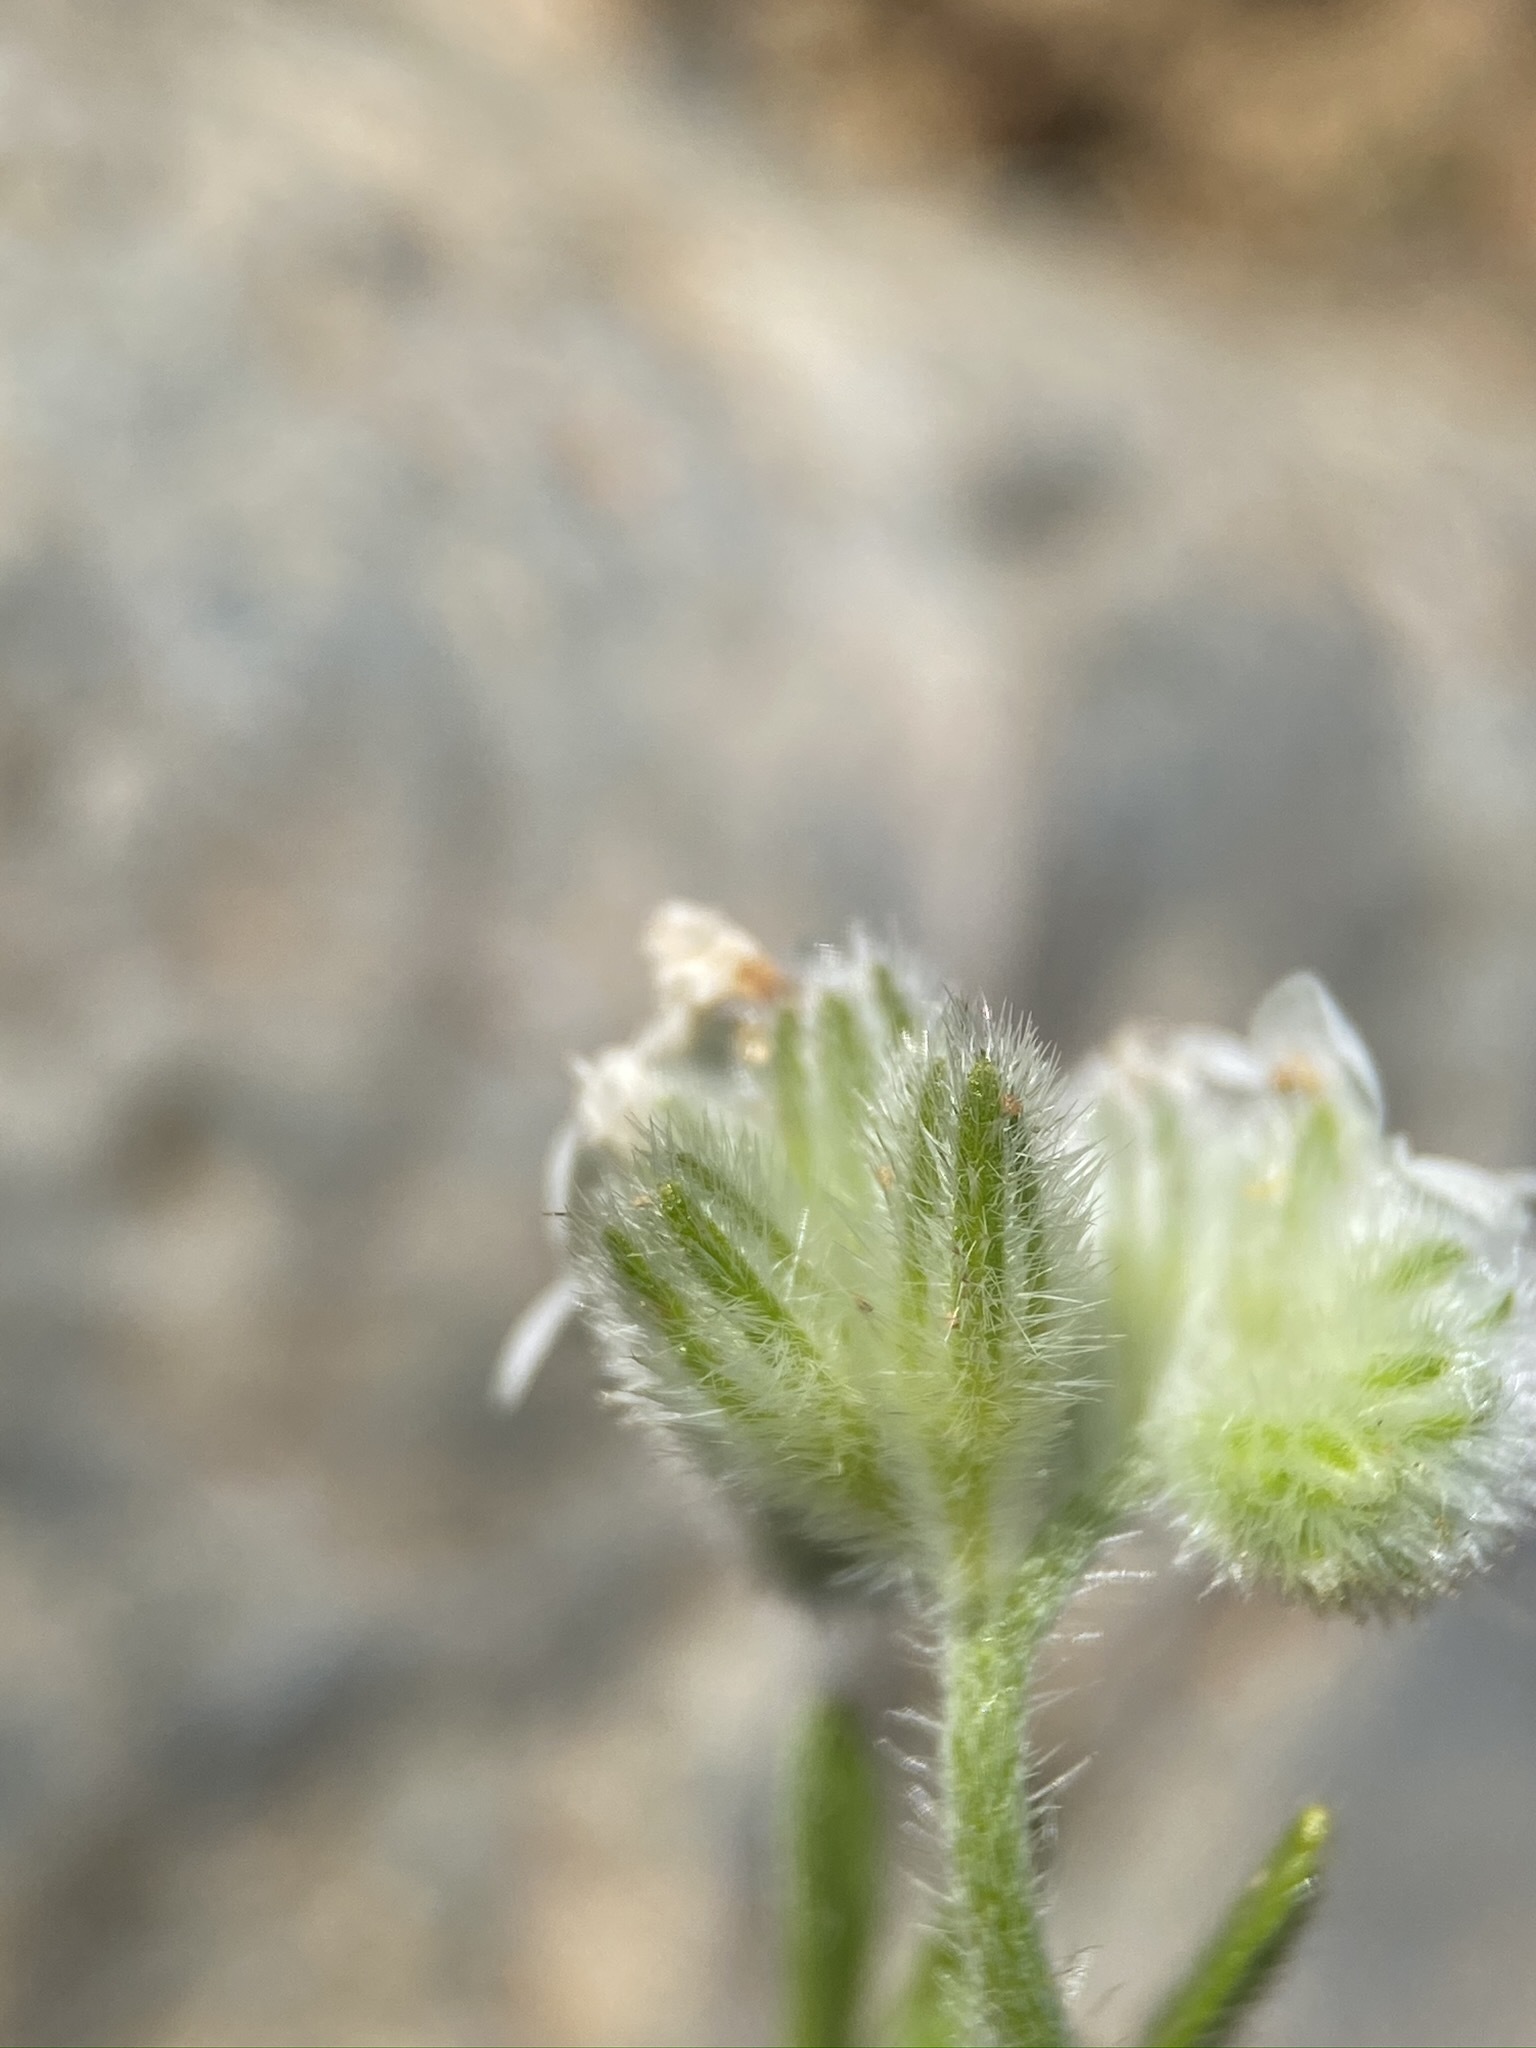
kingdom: Plantae
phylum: Tracheophyta
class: Magnoliopsida
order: Boraginales
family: Boraginaceae
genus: Cryptantha
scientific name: Cryptantha crinita
